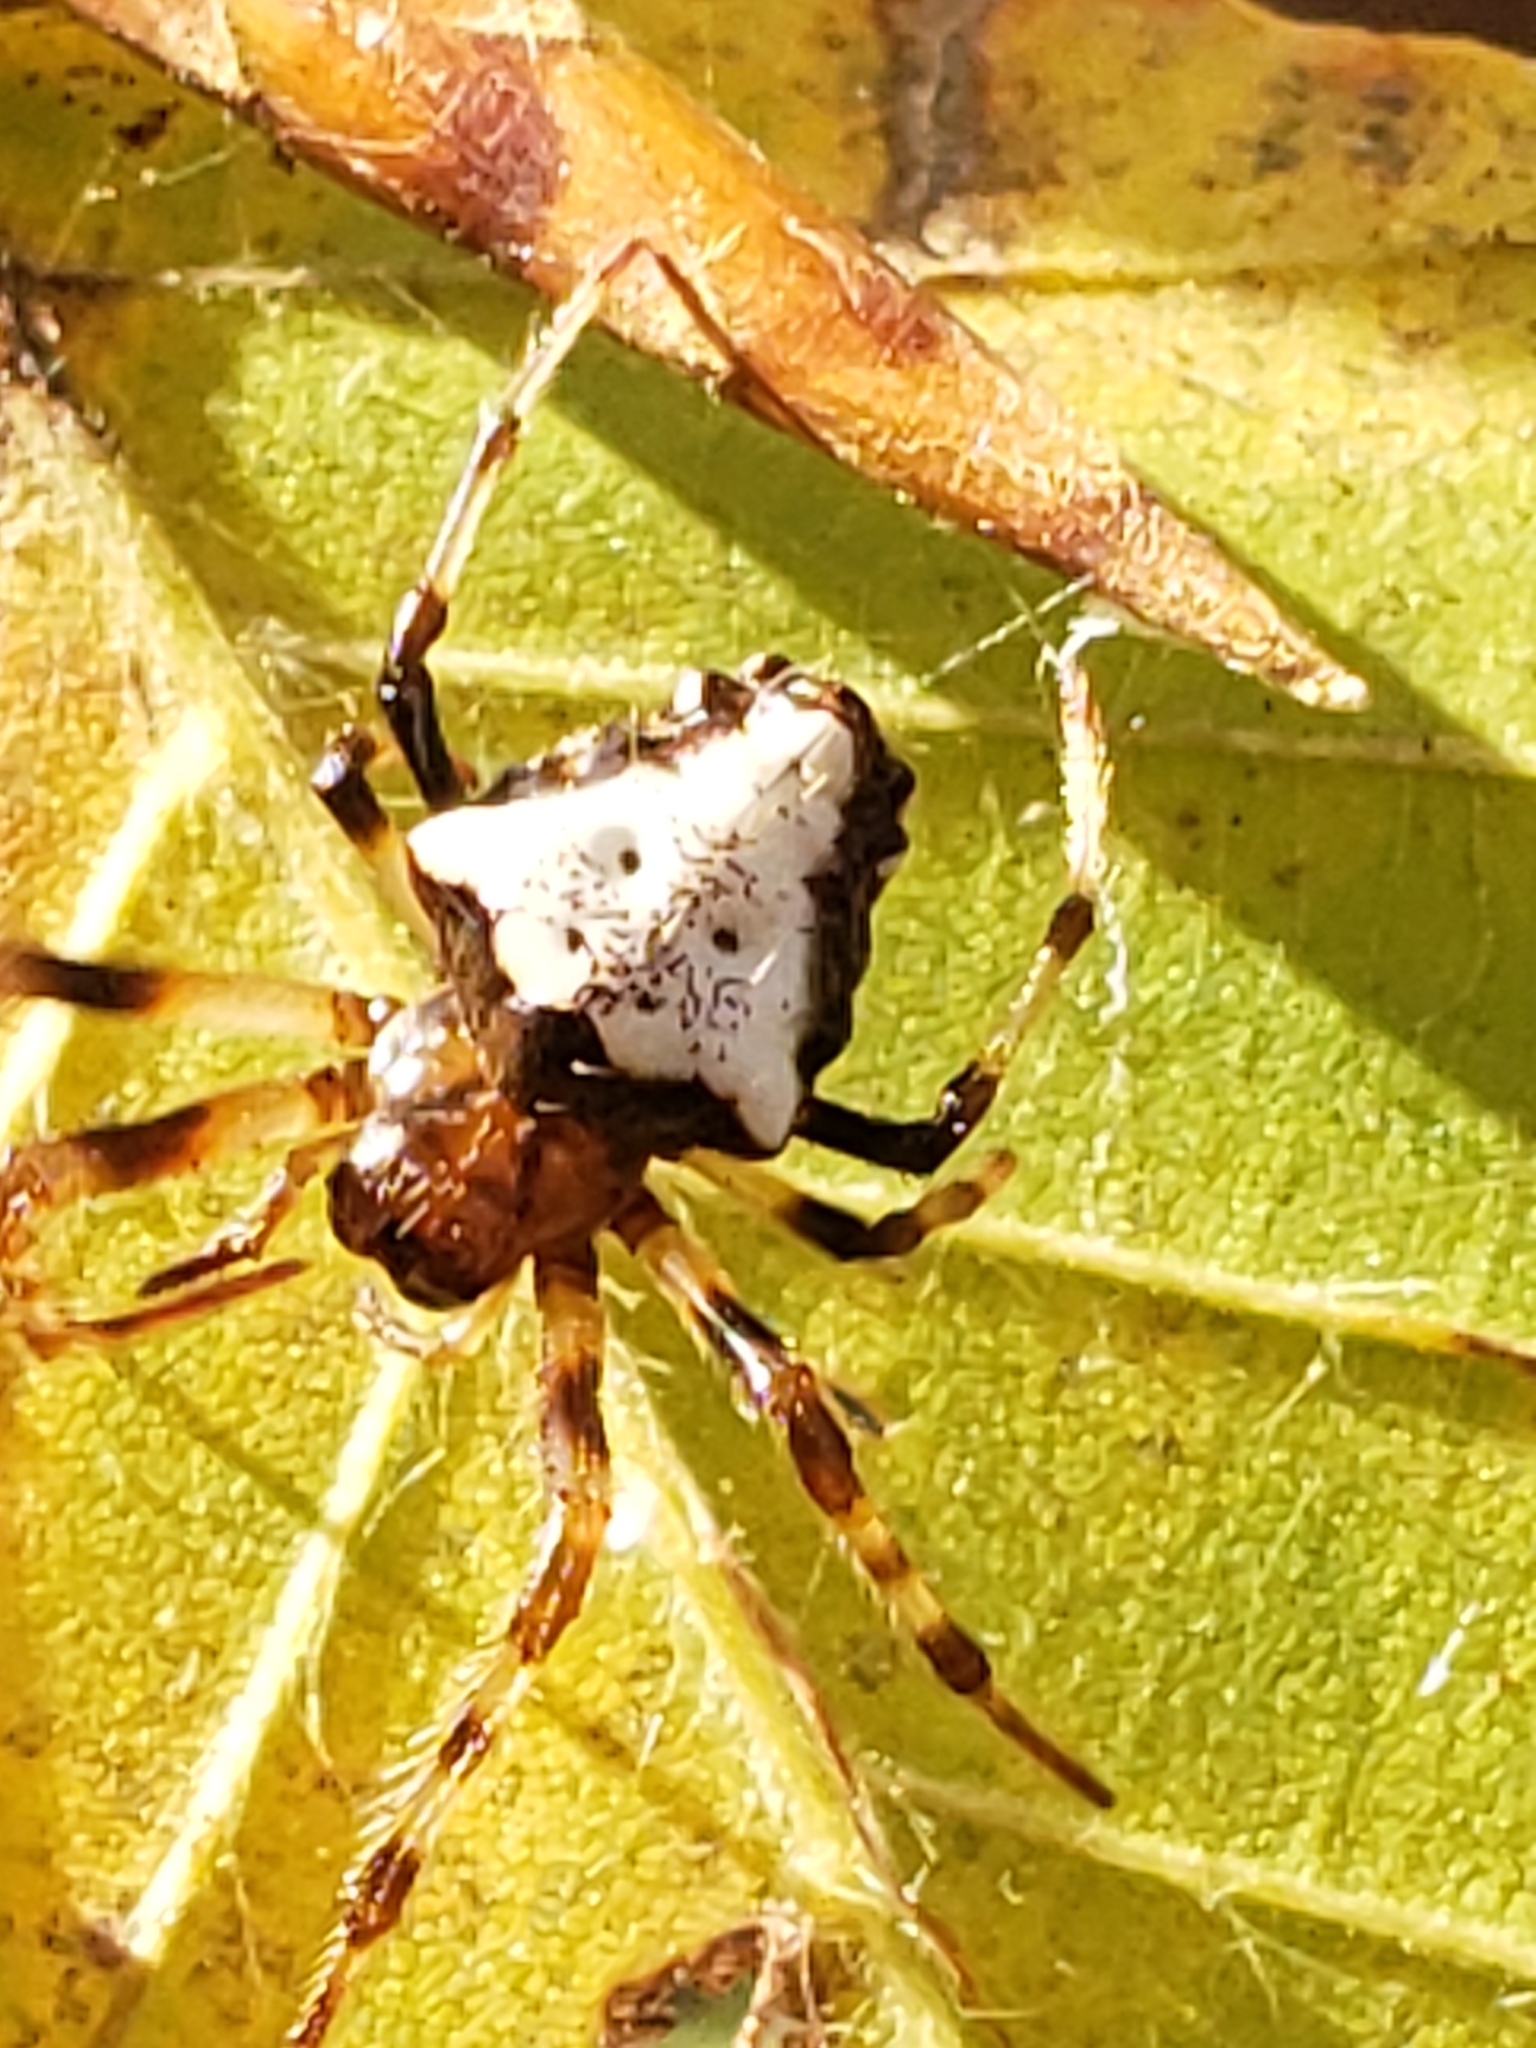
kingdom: Animalia
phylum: Arthropoda
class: Arachnida
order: Araneae
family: Araneidae
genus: Verrucosa
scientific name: Verrucosa arenata
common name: Orb weavers
